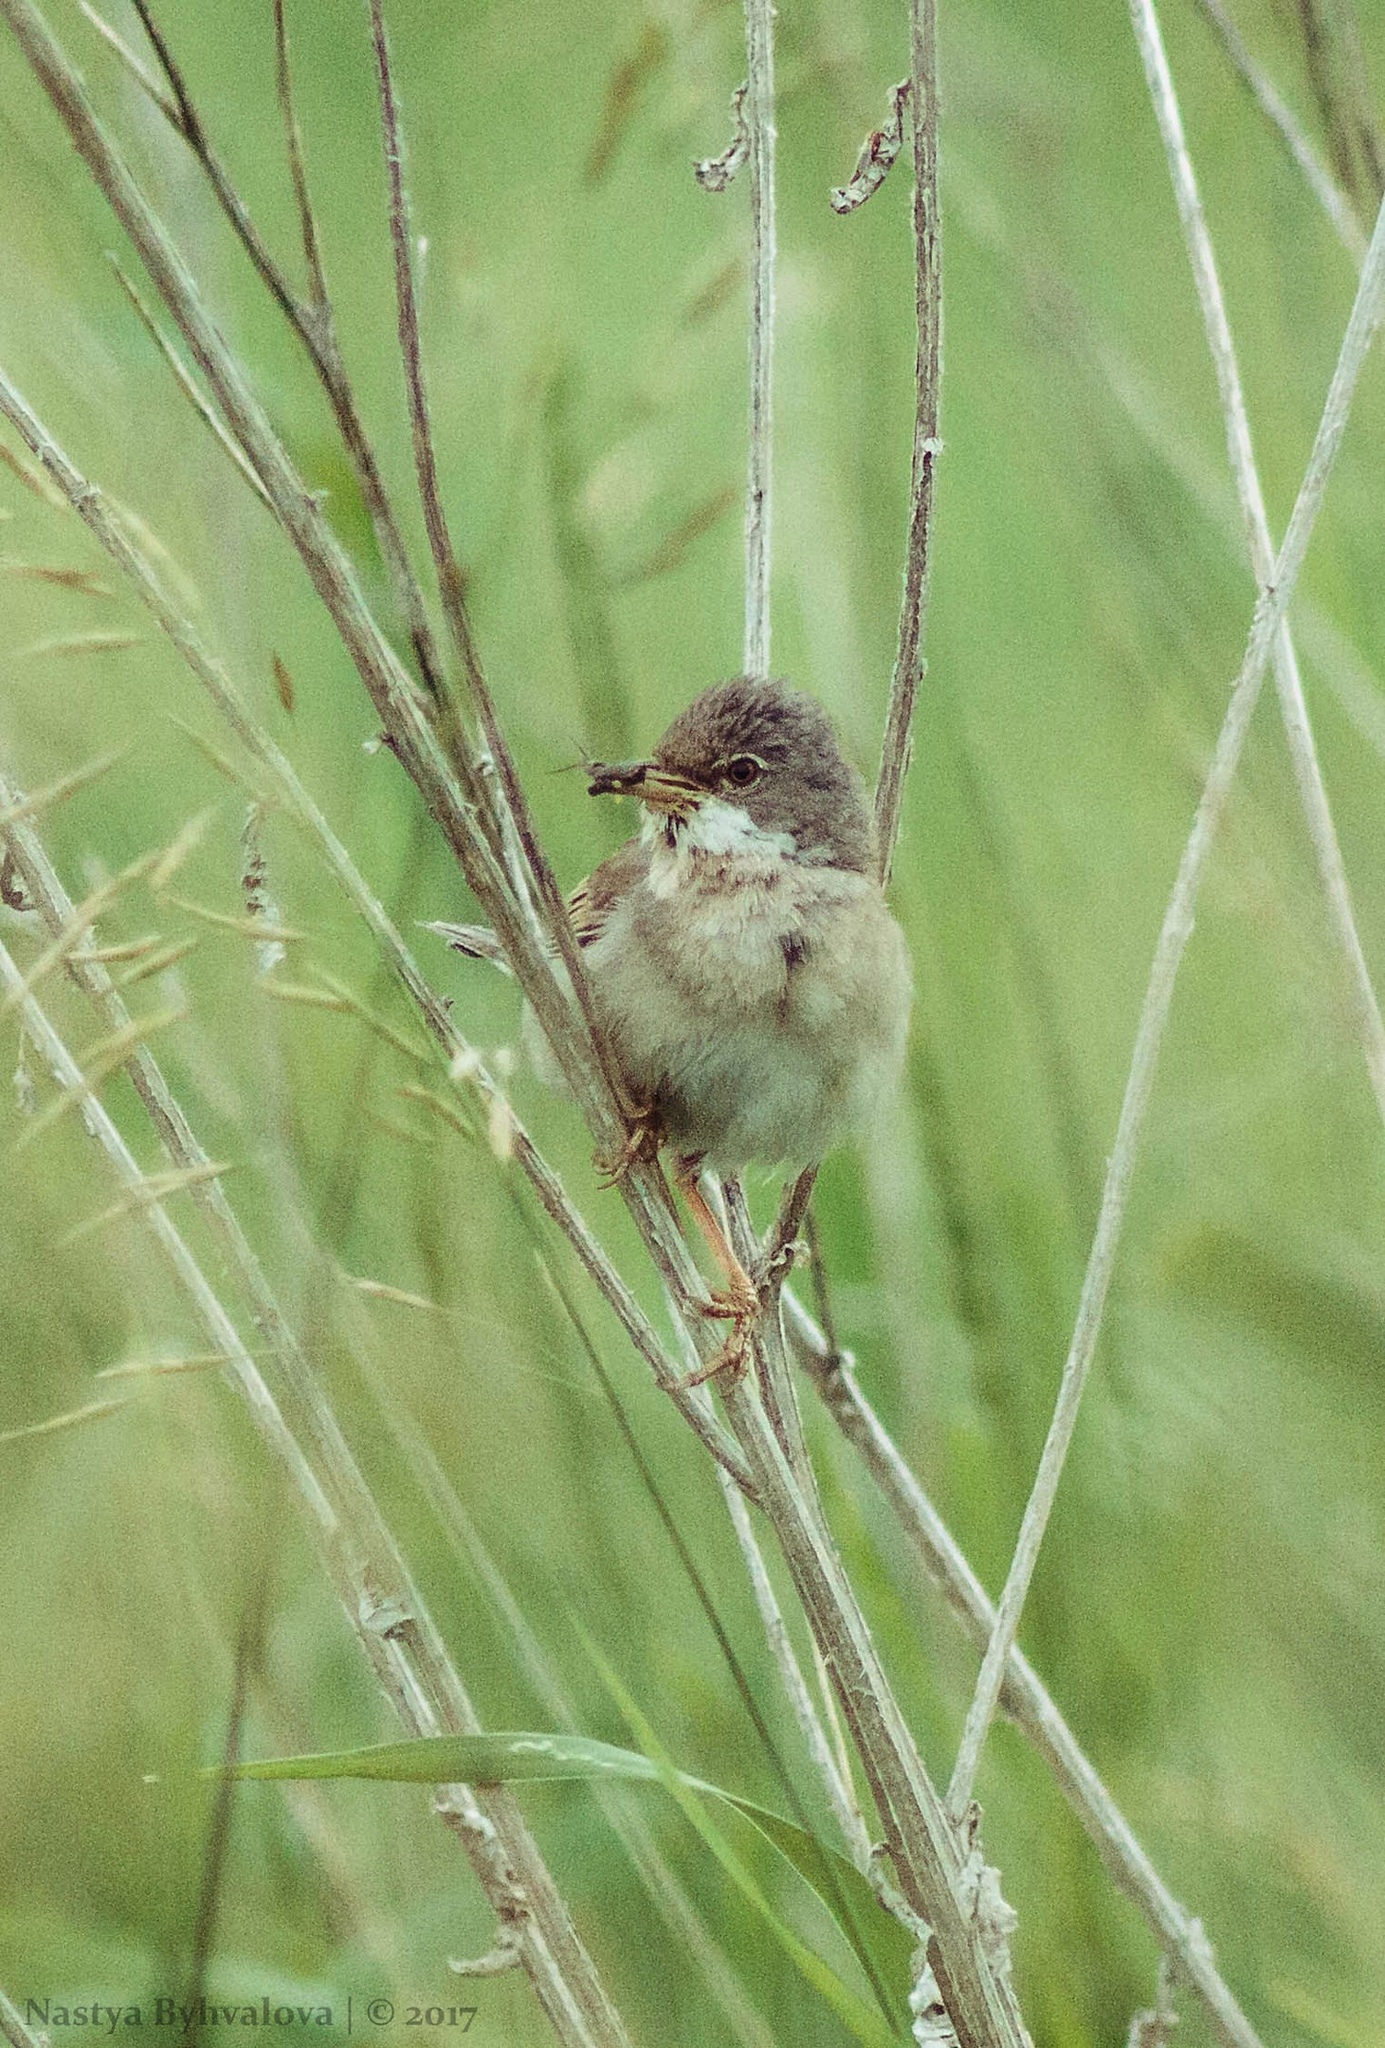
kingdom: Animalia
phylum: Chordata
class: Aves
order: Passeriformes
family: Sylviidae
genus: Sylvia
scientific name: Sylvia communis
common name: Common whitethroat
